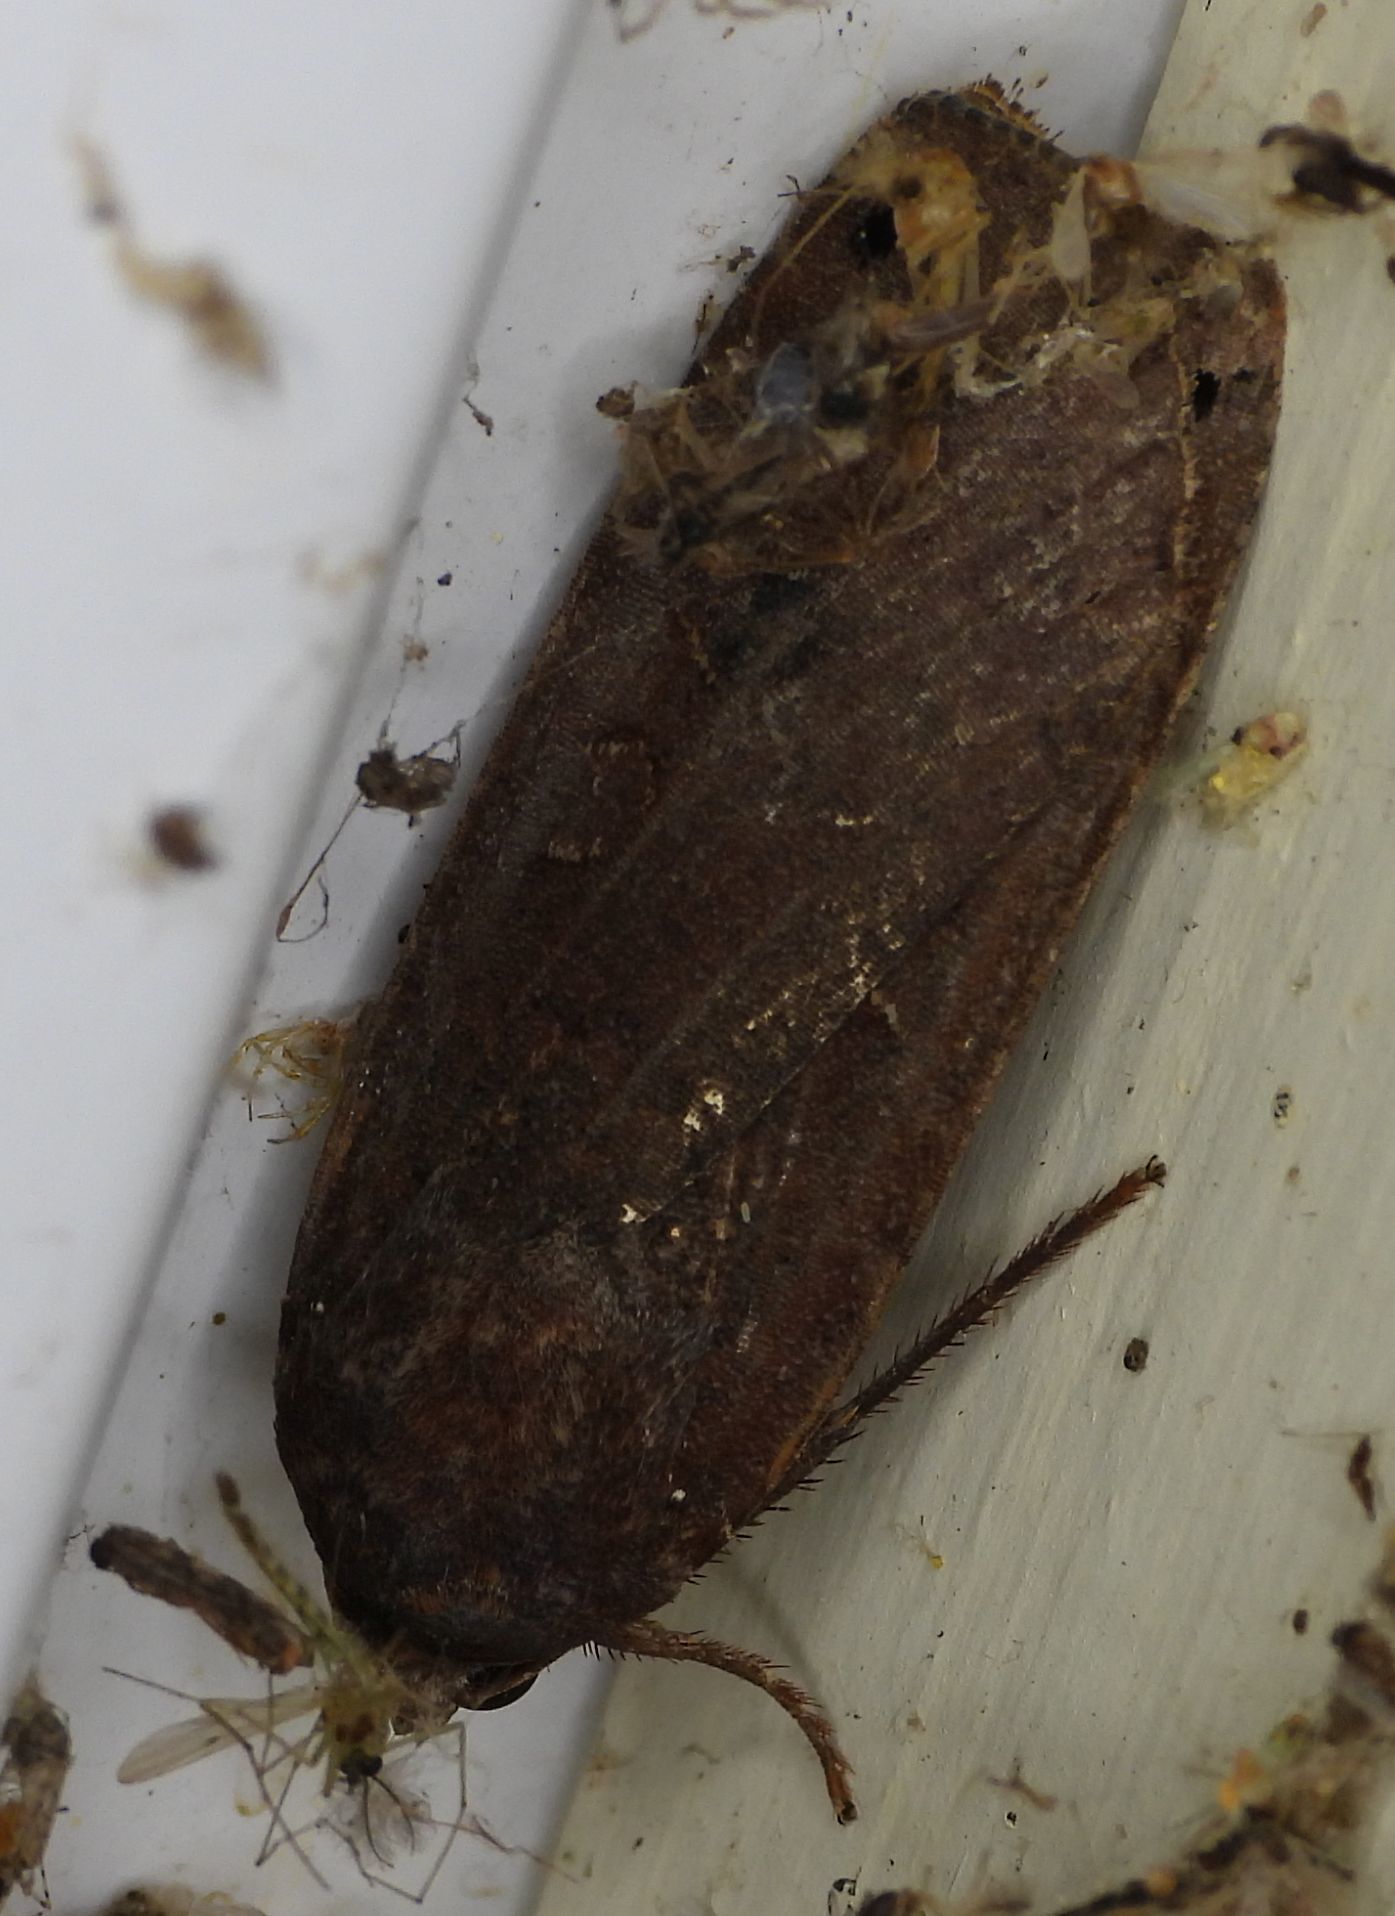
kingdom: Animalia
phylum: Arthropoda
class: Insecta
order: Lepidoptera
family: Noctuidae
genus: Noctua
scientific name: Noctua pronuba
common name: Large yellow underwing
